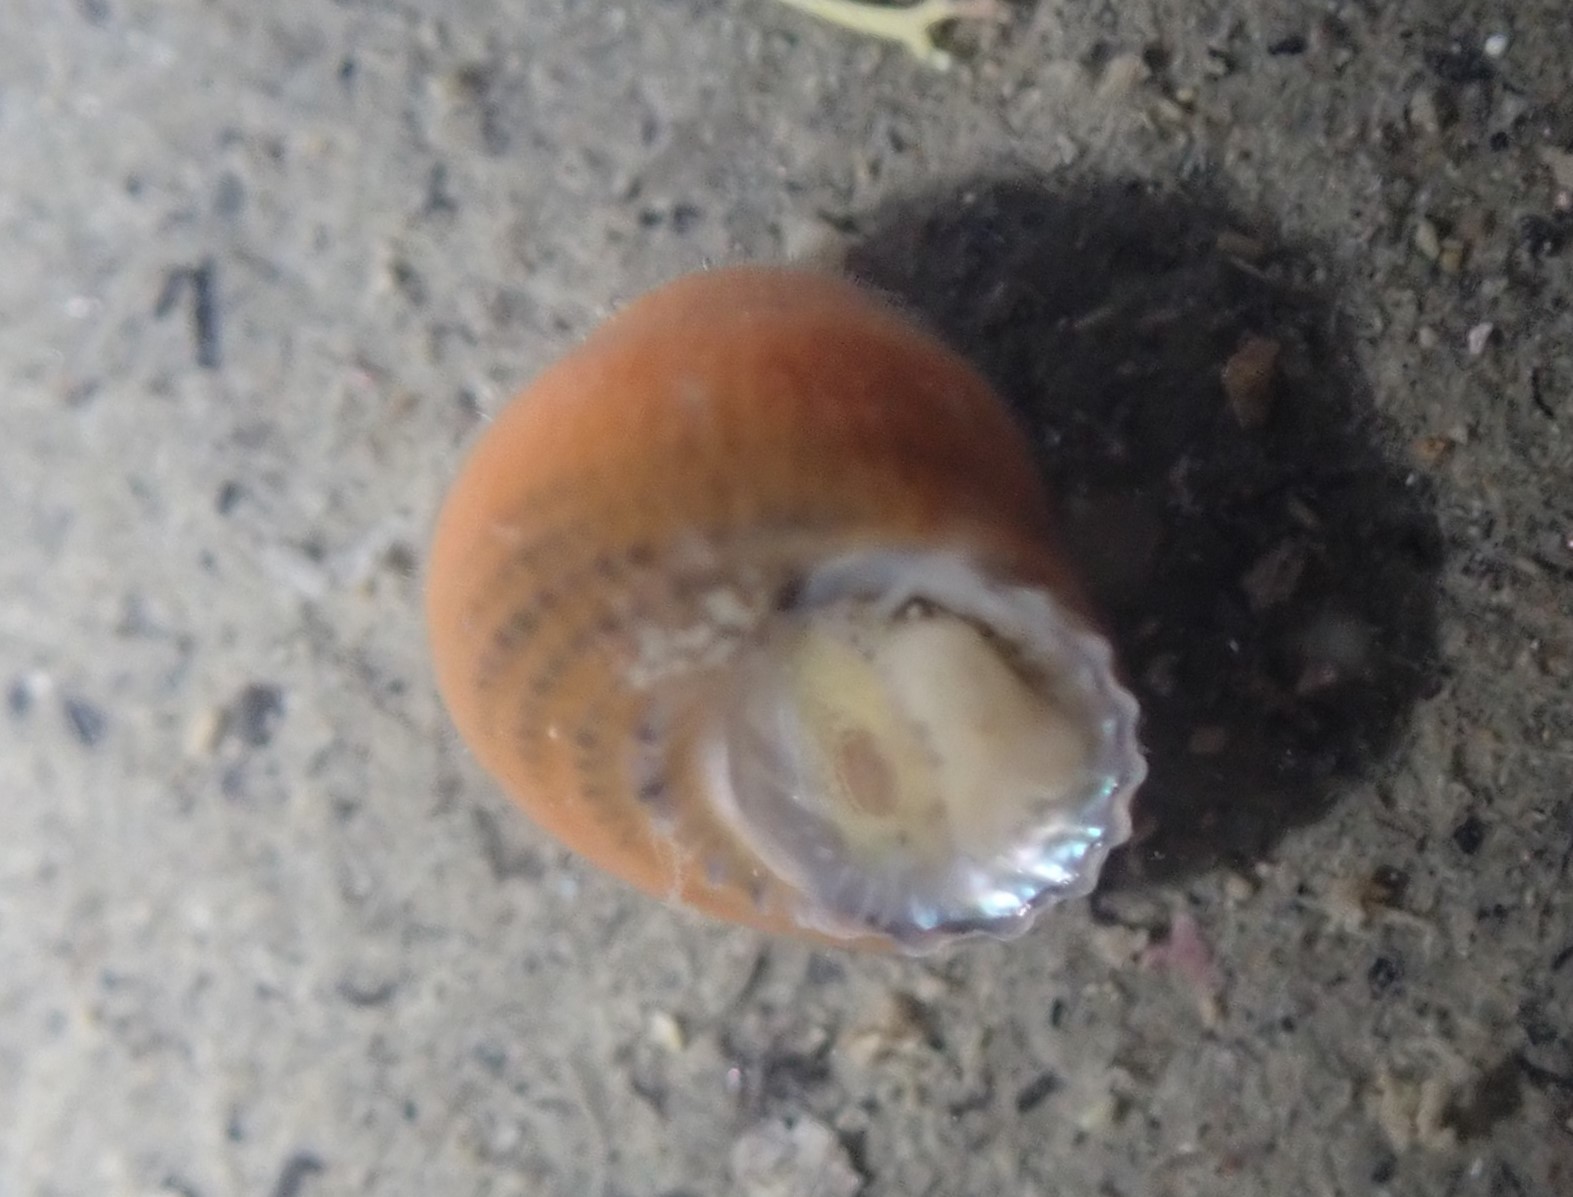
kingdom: Animalia
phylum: Mollusca
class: Gastropoda
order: Seguenziida
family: Chilodontaidae
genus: Herpetopoma
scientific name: Herpetopoma bellum
